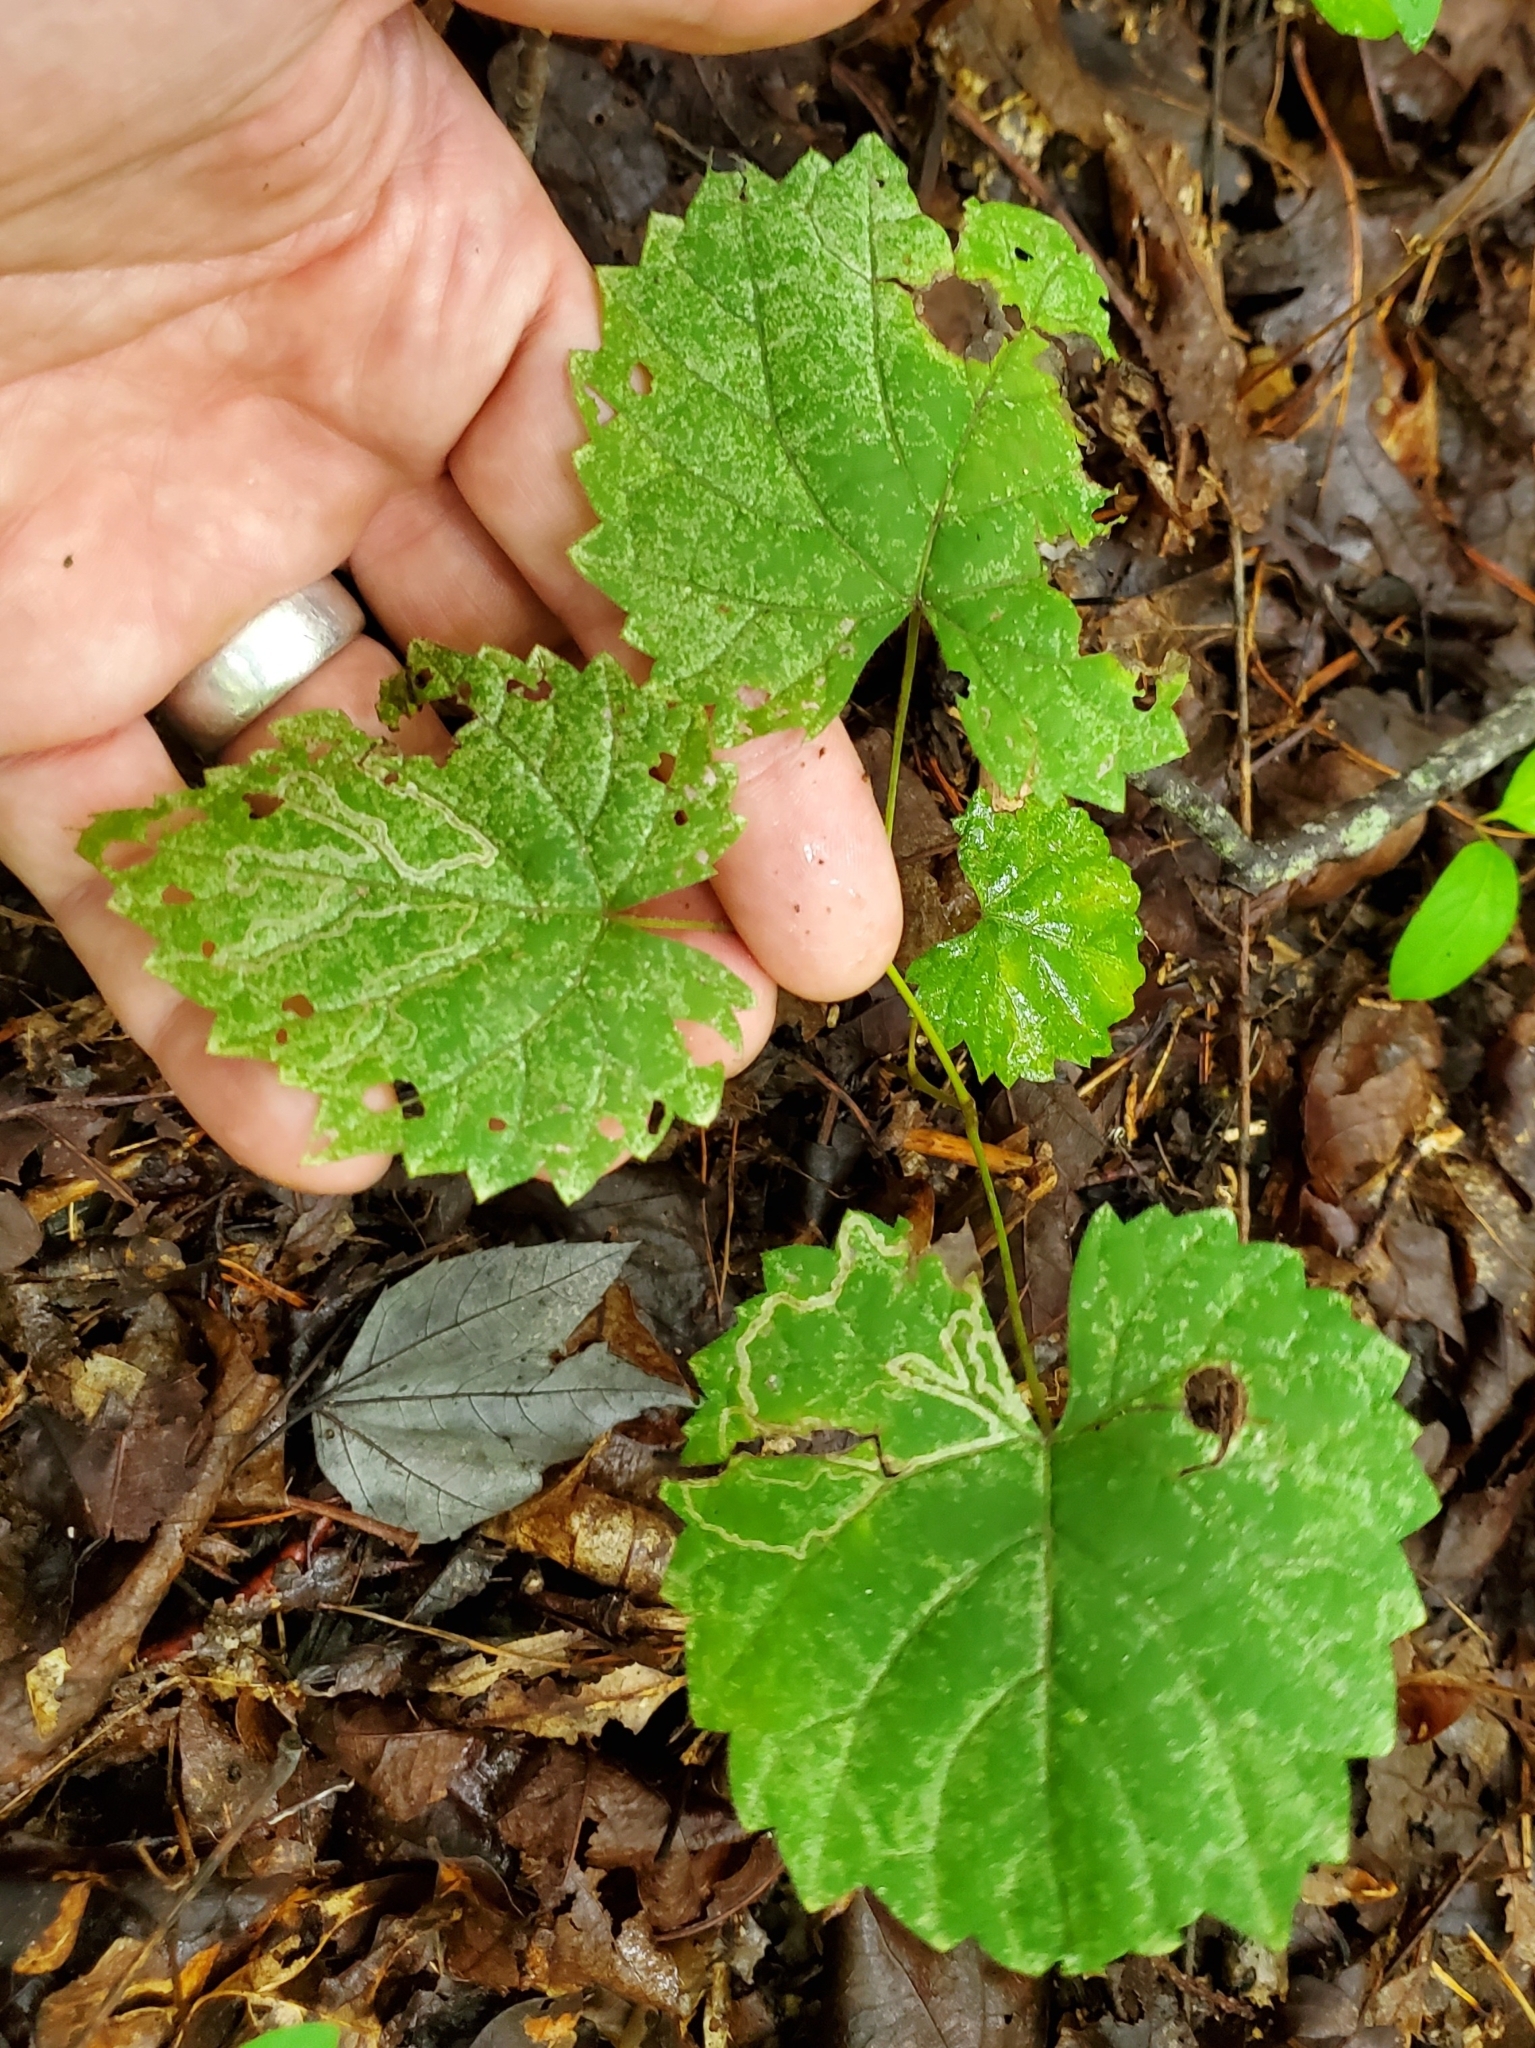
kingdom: Animalia
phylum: Arthropoda
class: Insecta
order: Lepidoptera
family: Gracillariidae
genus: Phyllocnistis
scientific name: Phyllocnistis vitifoliella
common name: Grape leaf-miner moth
